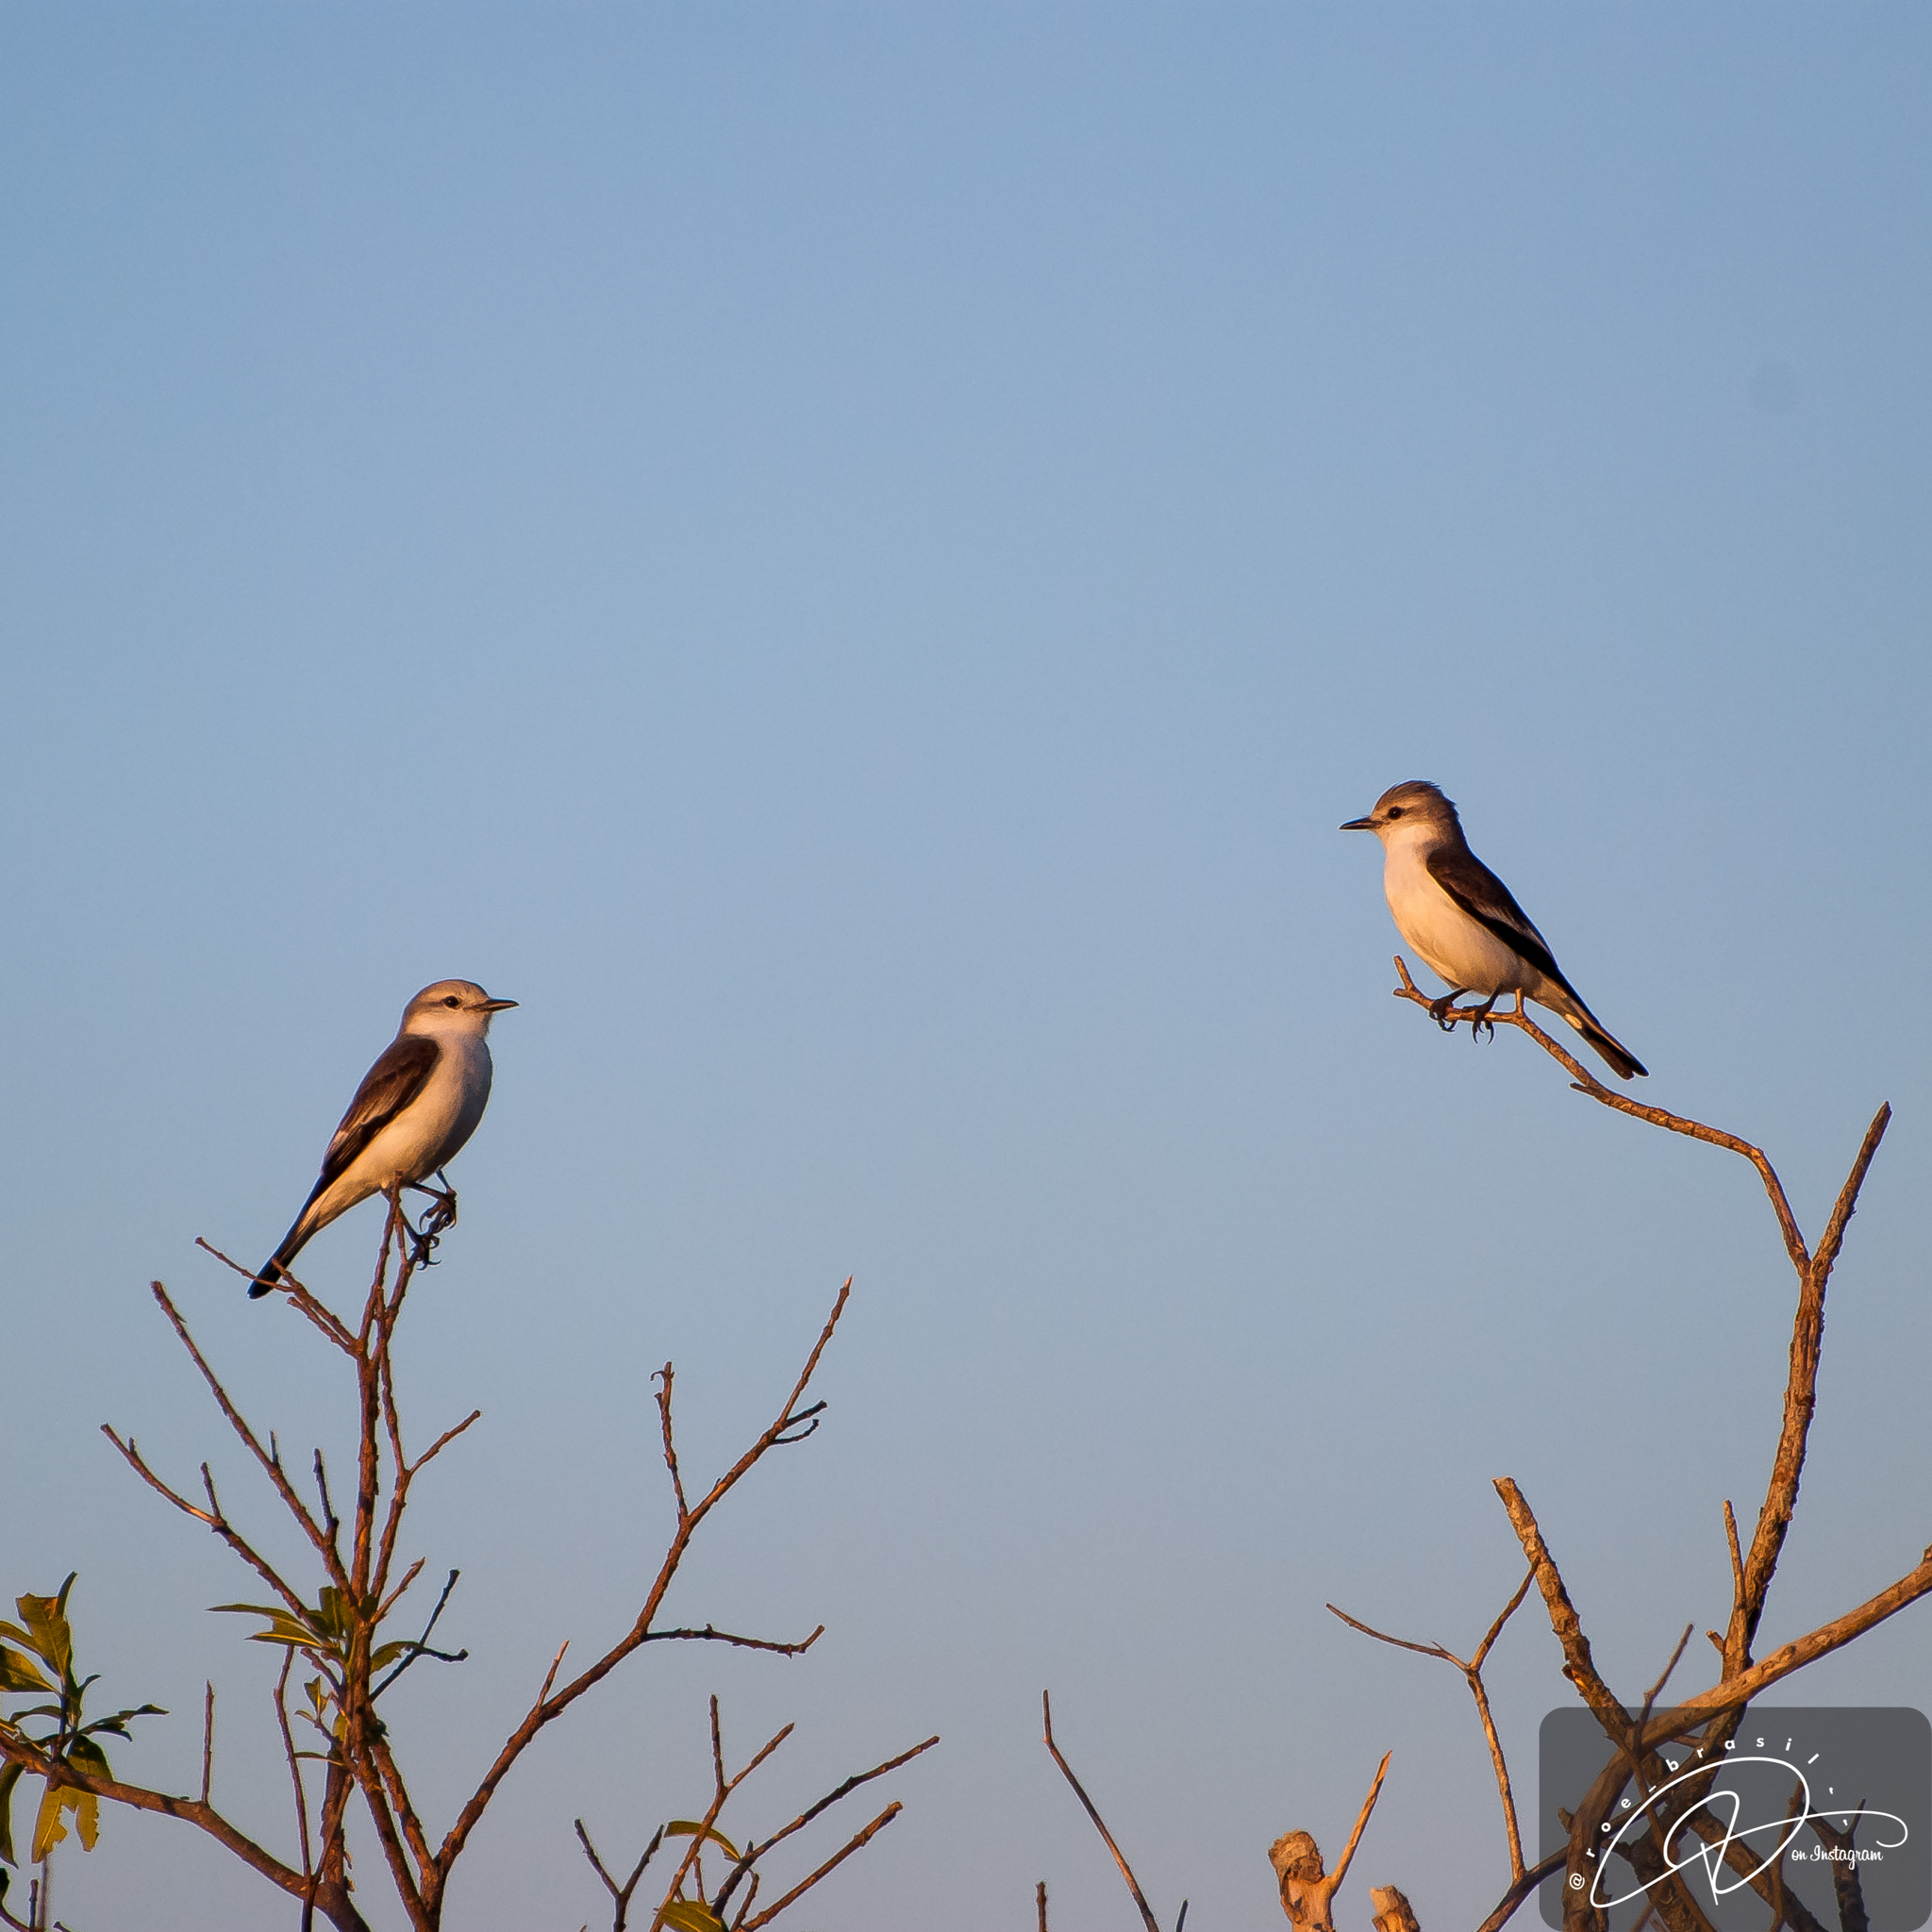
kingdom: Animalia
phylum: Chordata
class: Aves
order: Passeriformes
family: Tyrannidae
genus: Xolmis
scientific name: Xolmis velatus
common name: White-rumped monjita
